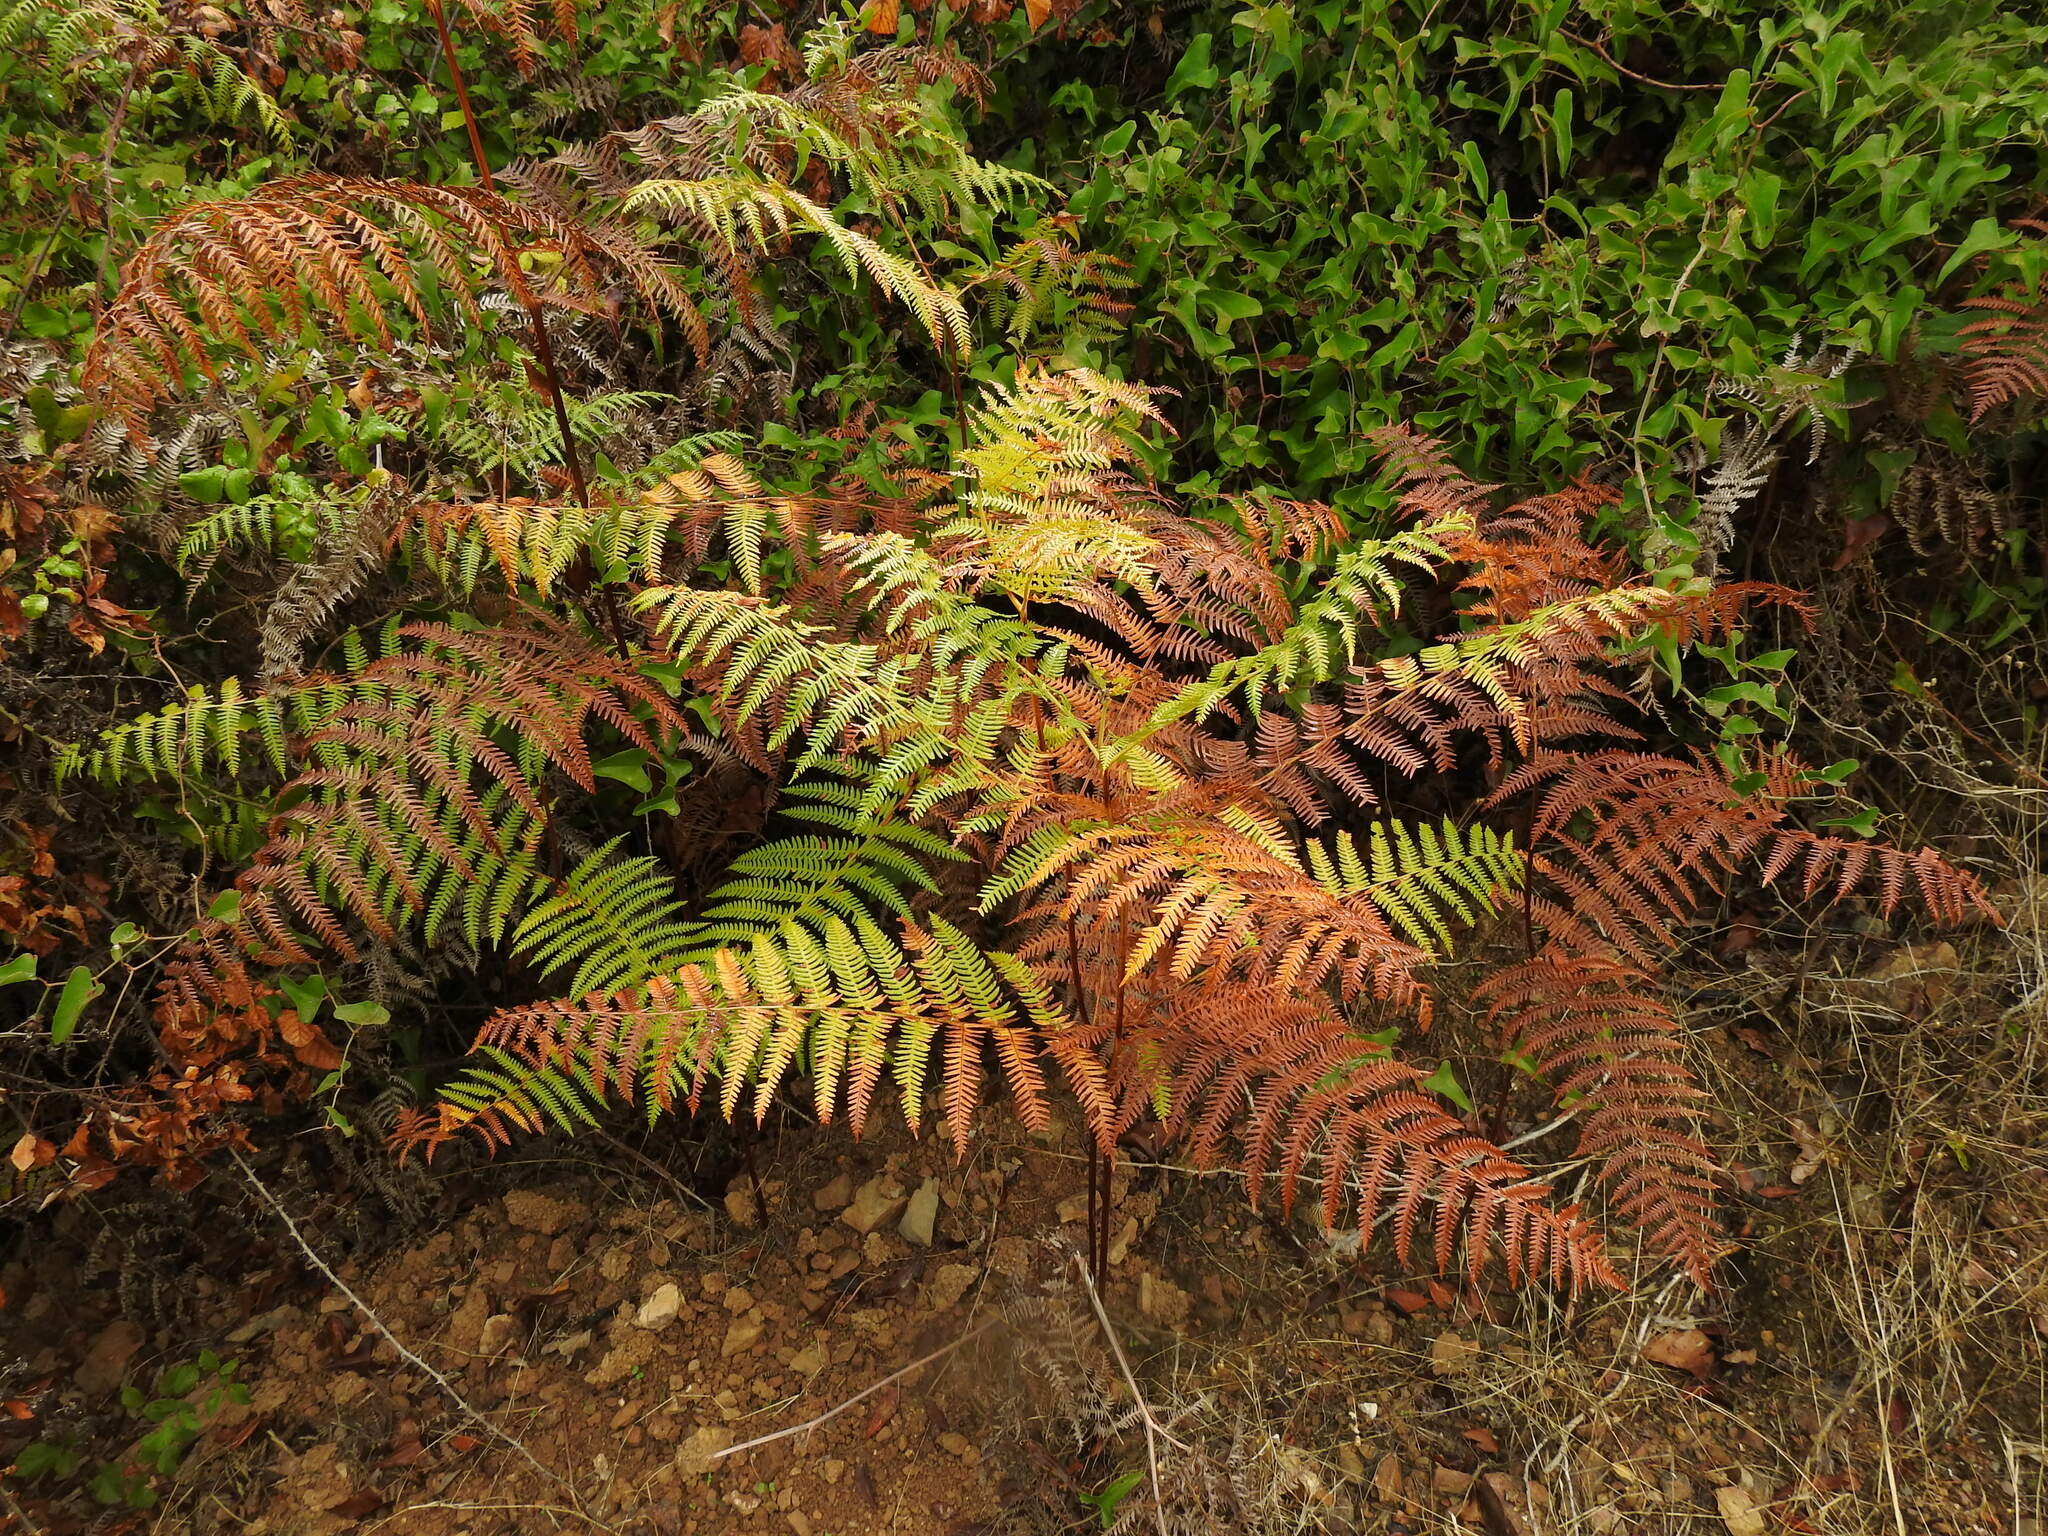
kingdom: Plantae
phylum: Tracheophyta
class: Polypodiopsida
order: Polypodiales
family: Dennstaedtiaceae
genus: Pteridium
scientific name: Pteridium aquilinum
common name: Bracken
